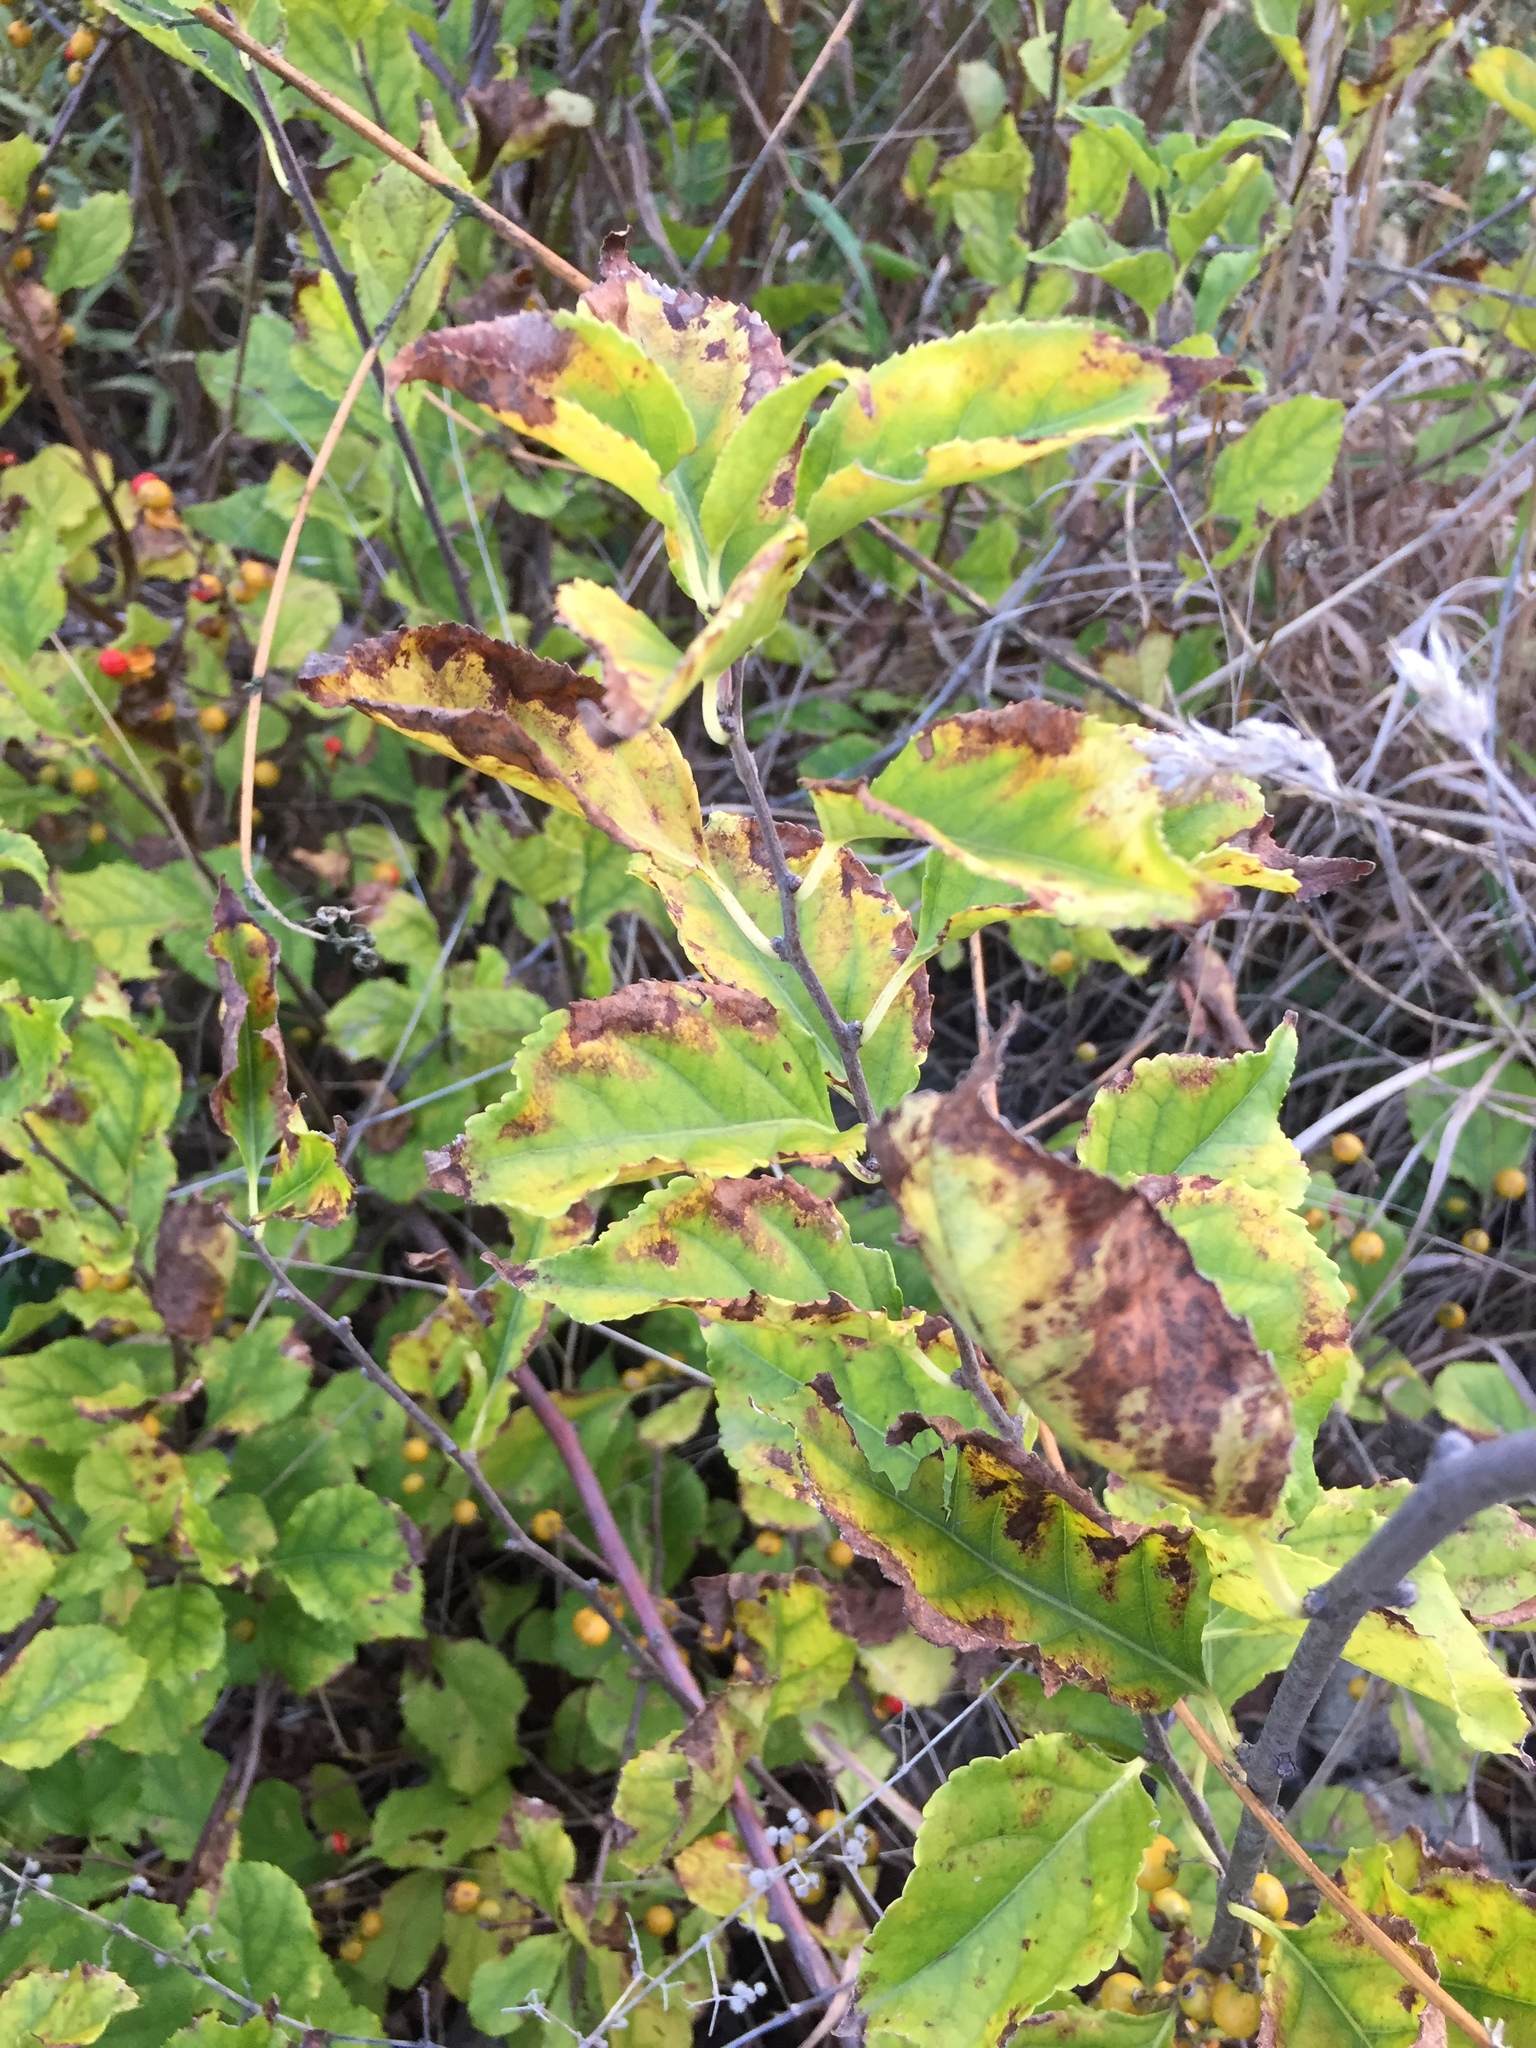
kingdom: Plantae
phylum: Tracheophyta
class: Magnoliopsida
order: Celastrales
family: Celastraceae
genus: Celastrus
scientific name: Celastrus orbiculatus
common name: Oriental bittersweet
